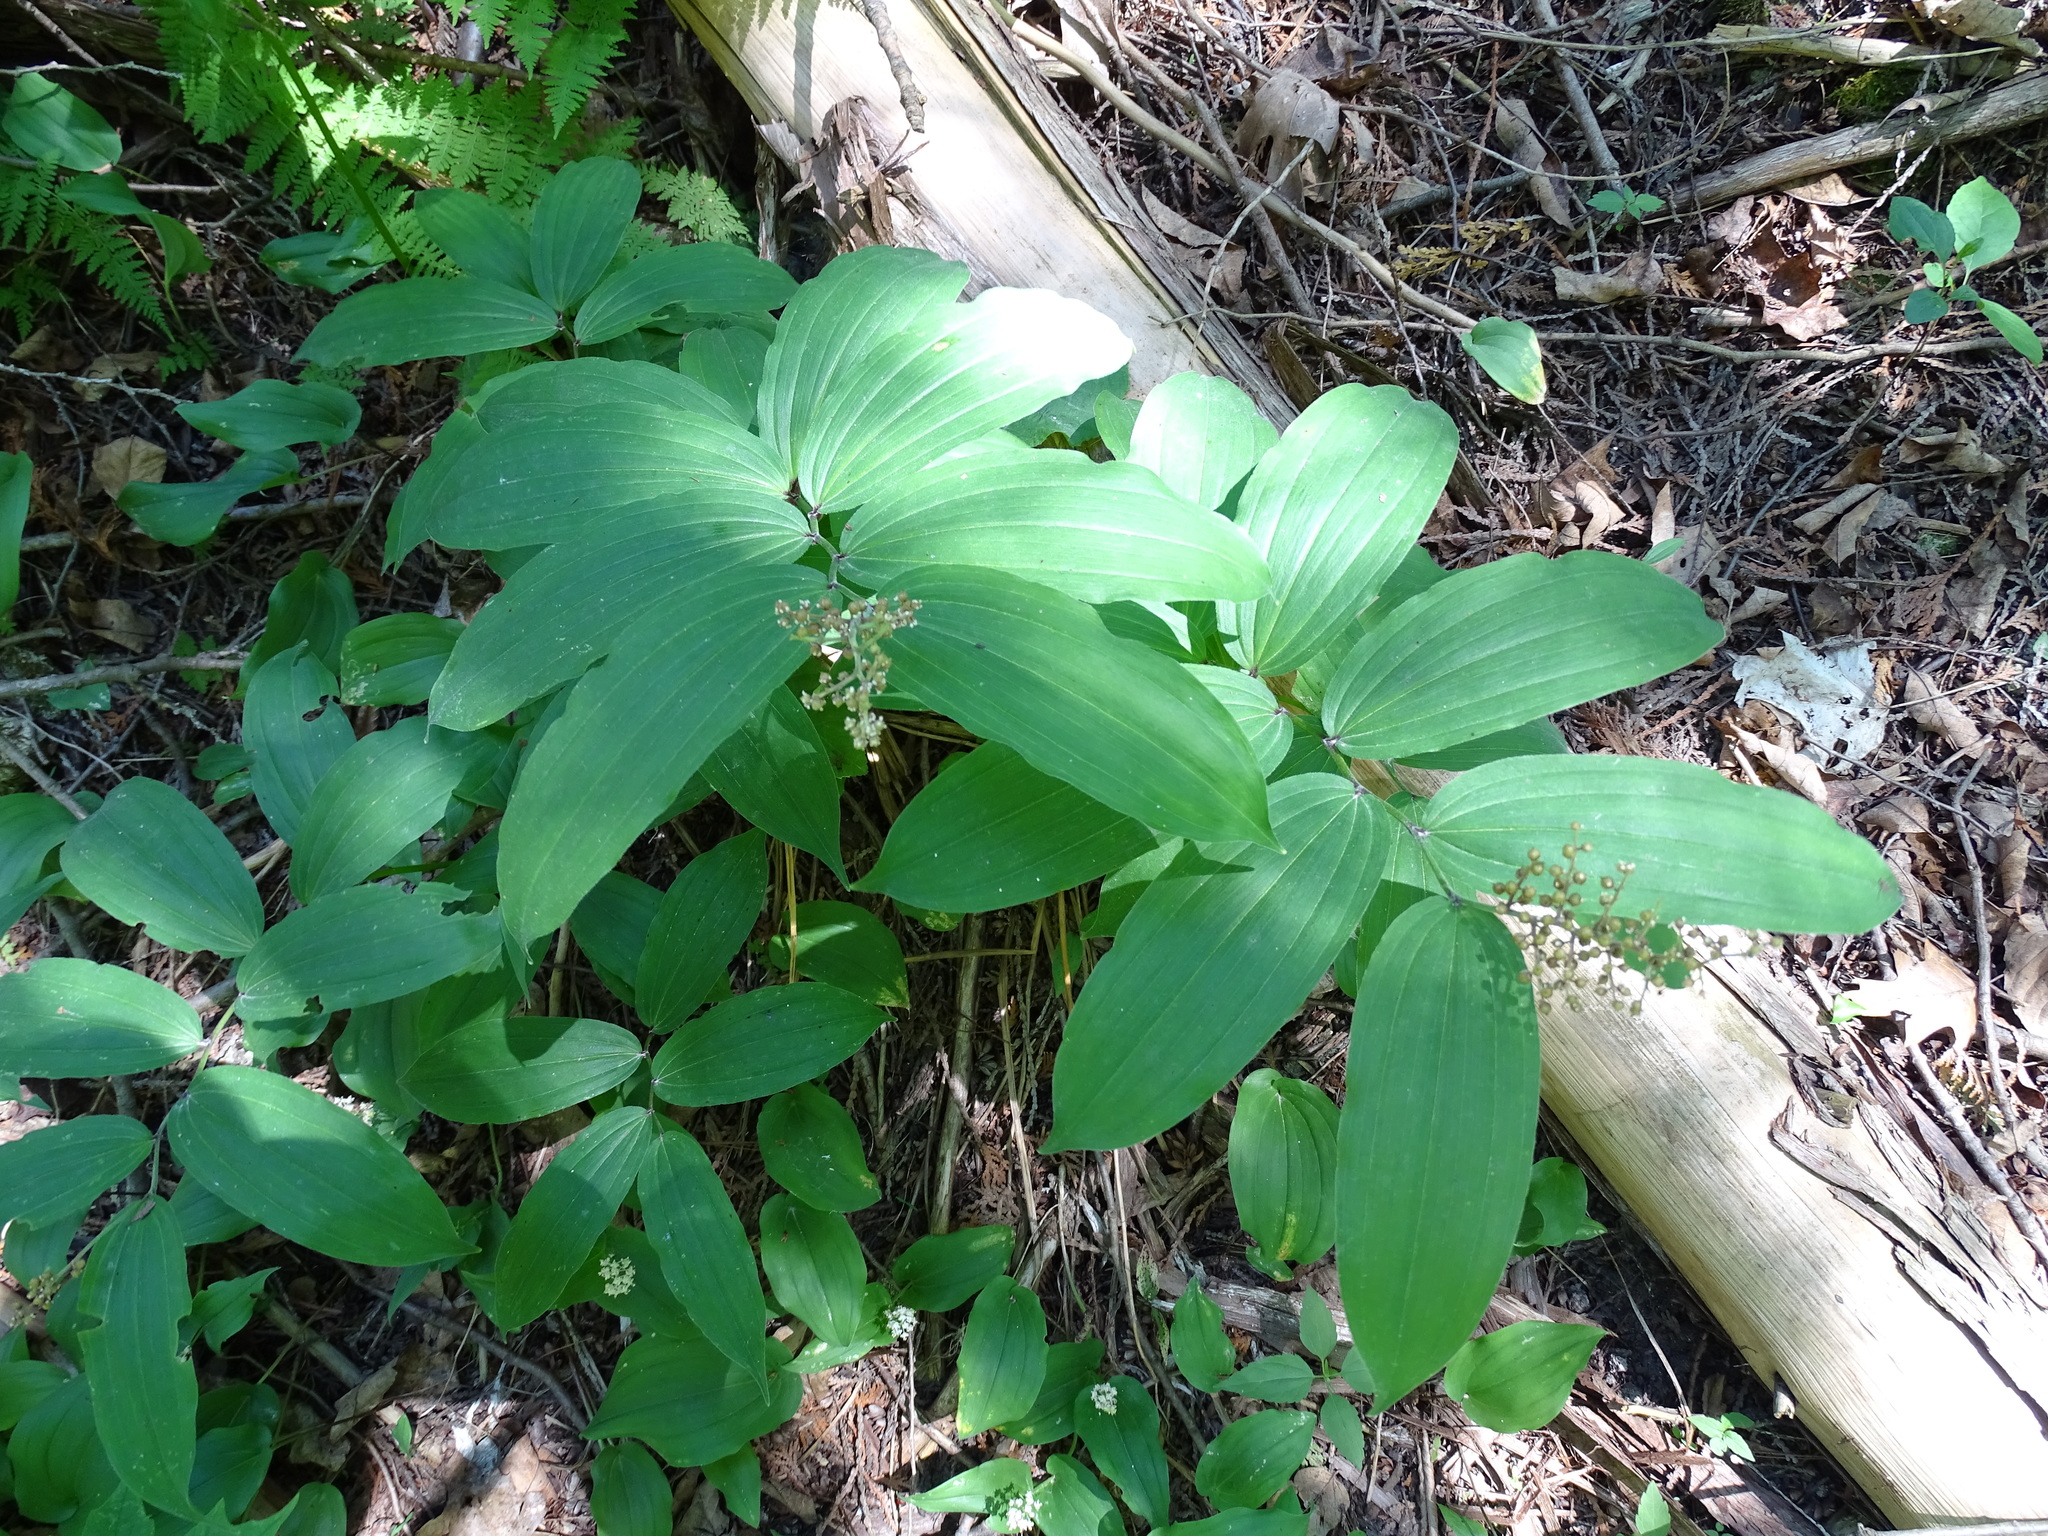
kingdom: Plantae
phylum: Tracheophyta
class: Liliopsida
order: Asparagales
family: Asparagaceae
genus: Maianthemum
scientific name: Maianthemum racemosum
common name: False spikenard
